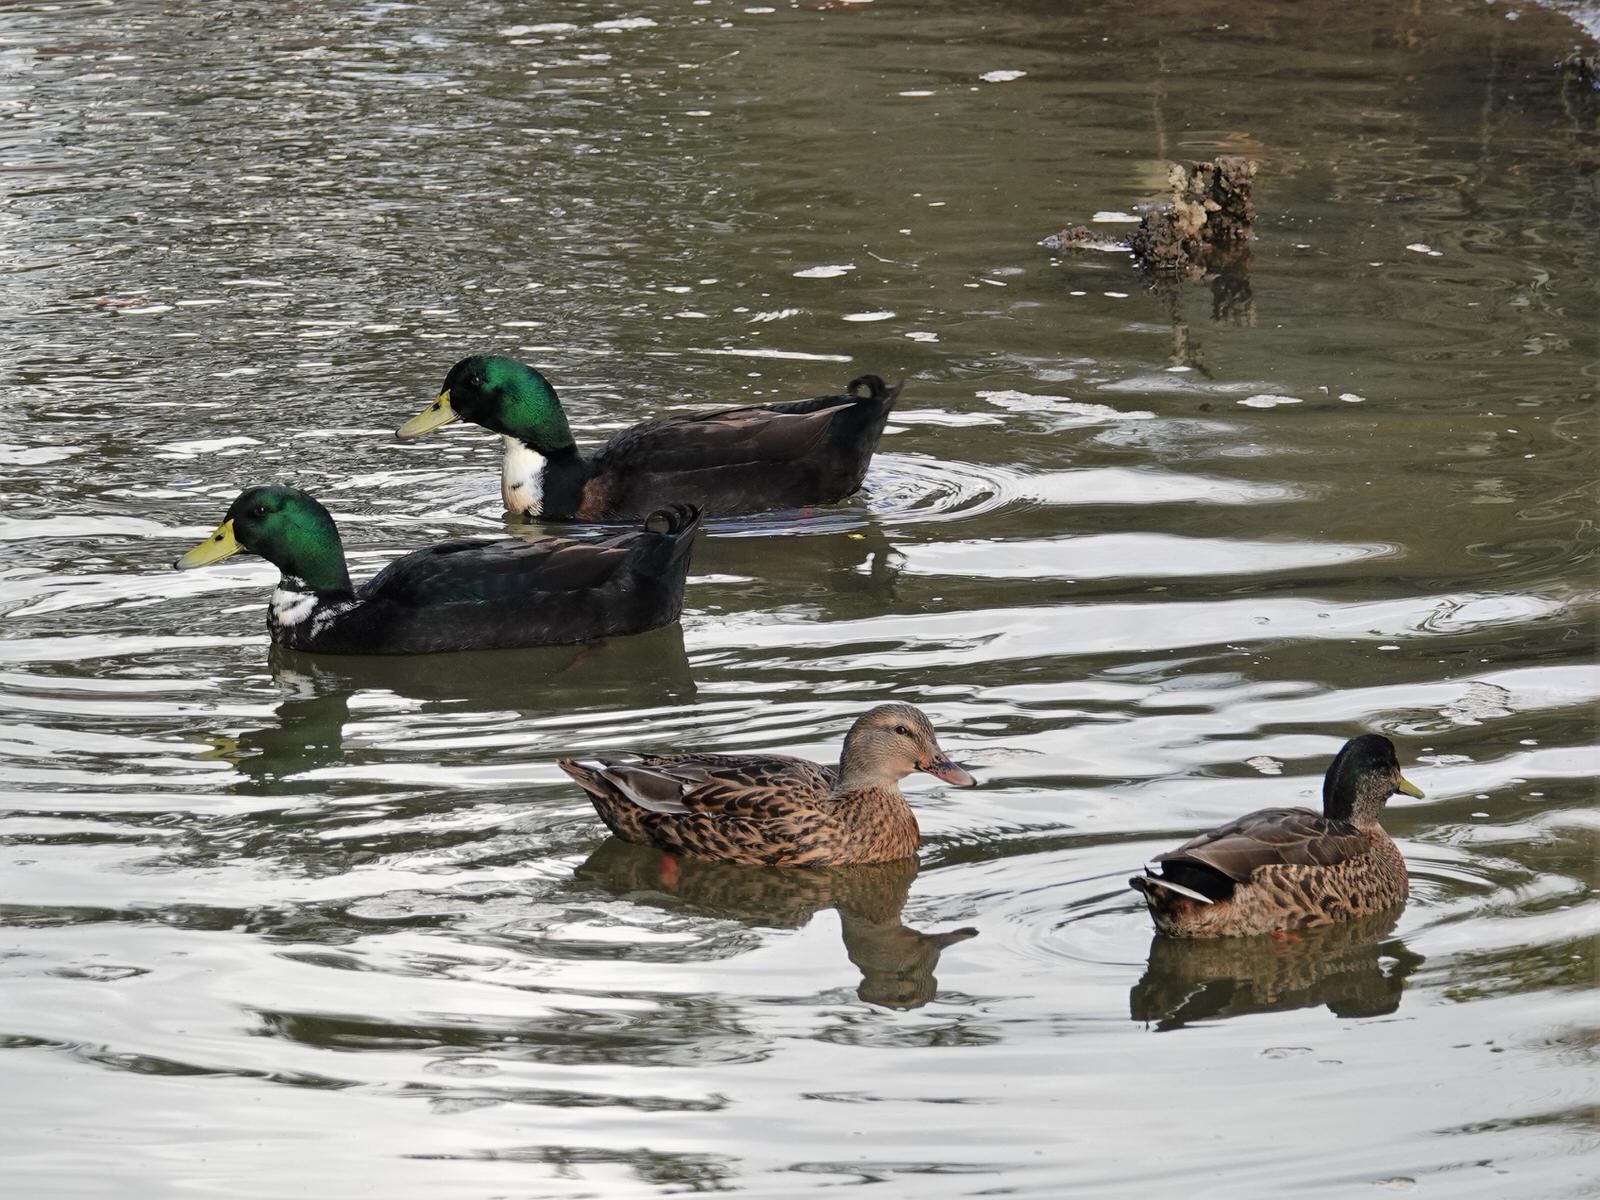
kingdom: Animalia
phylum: Chordata
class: Aves
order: Anseriformes
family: Anatidae
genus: Anas
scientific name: Anas platyrhynchos
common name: Mallard
